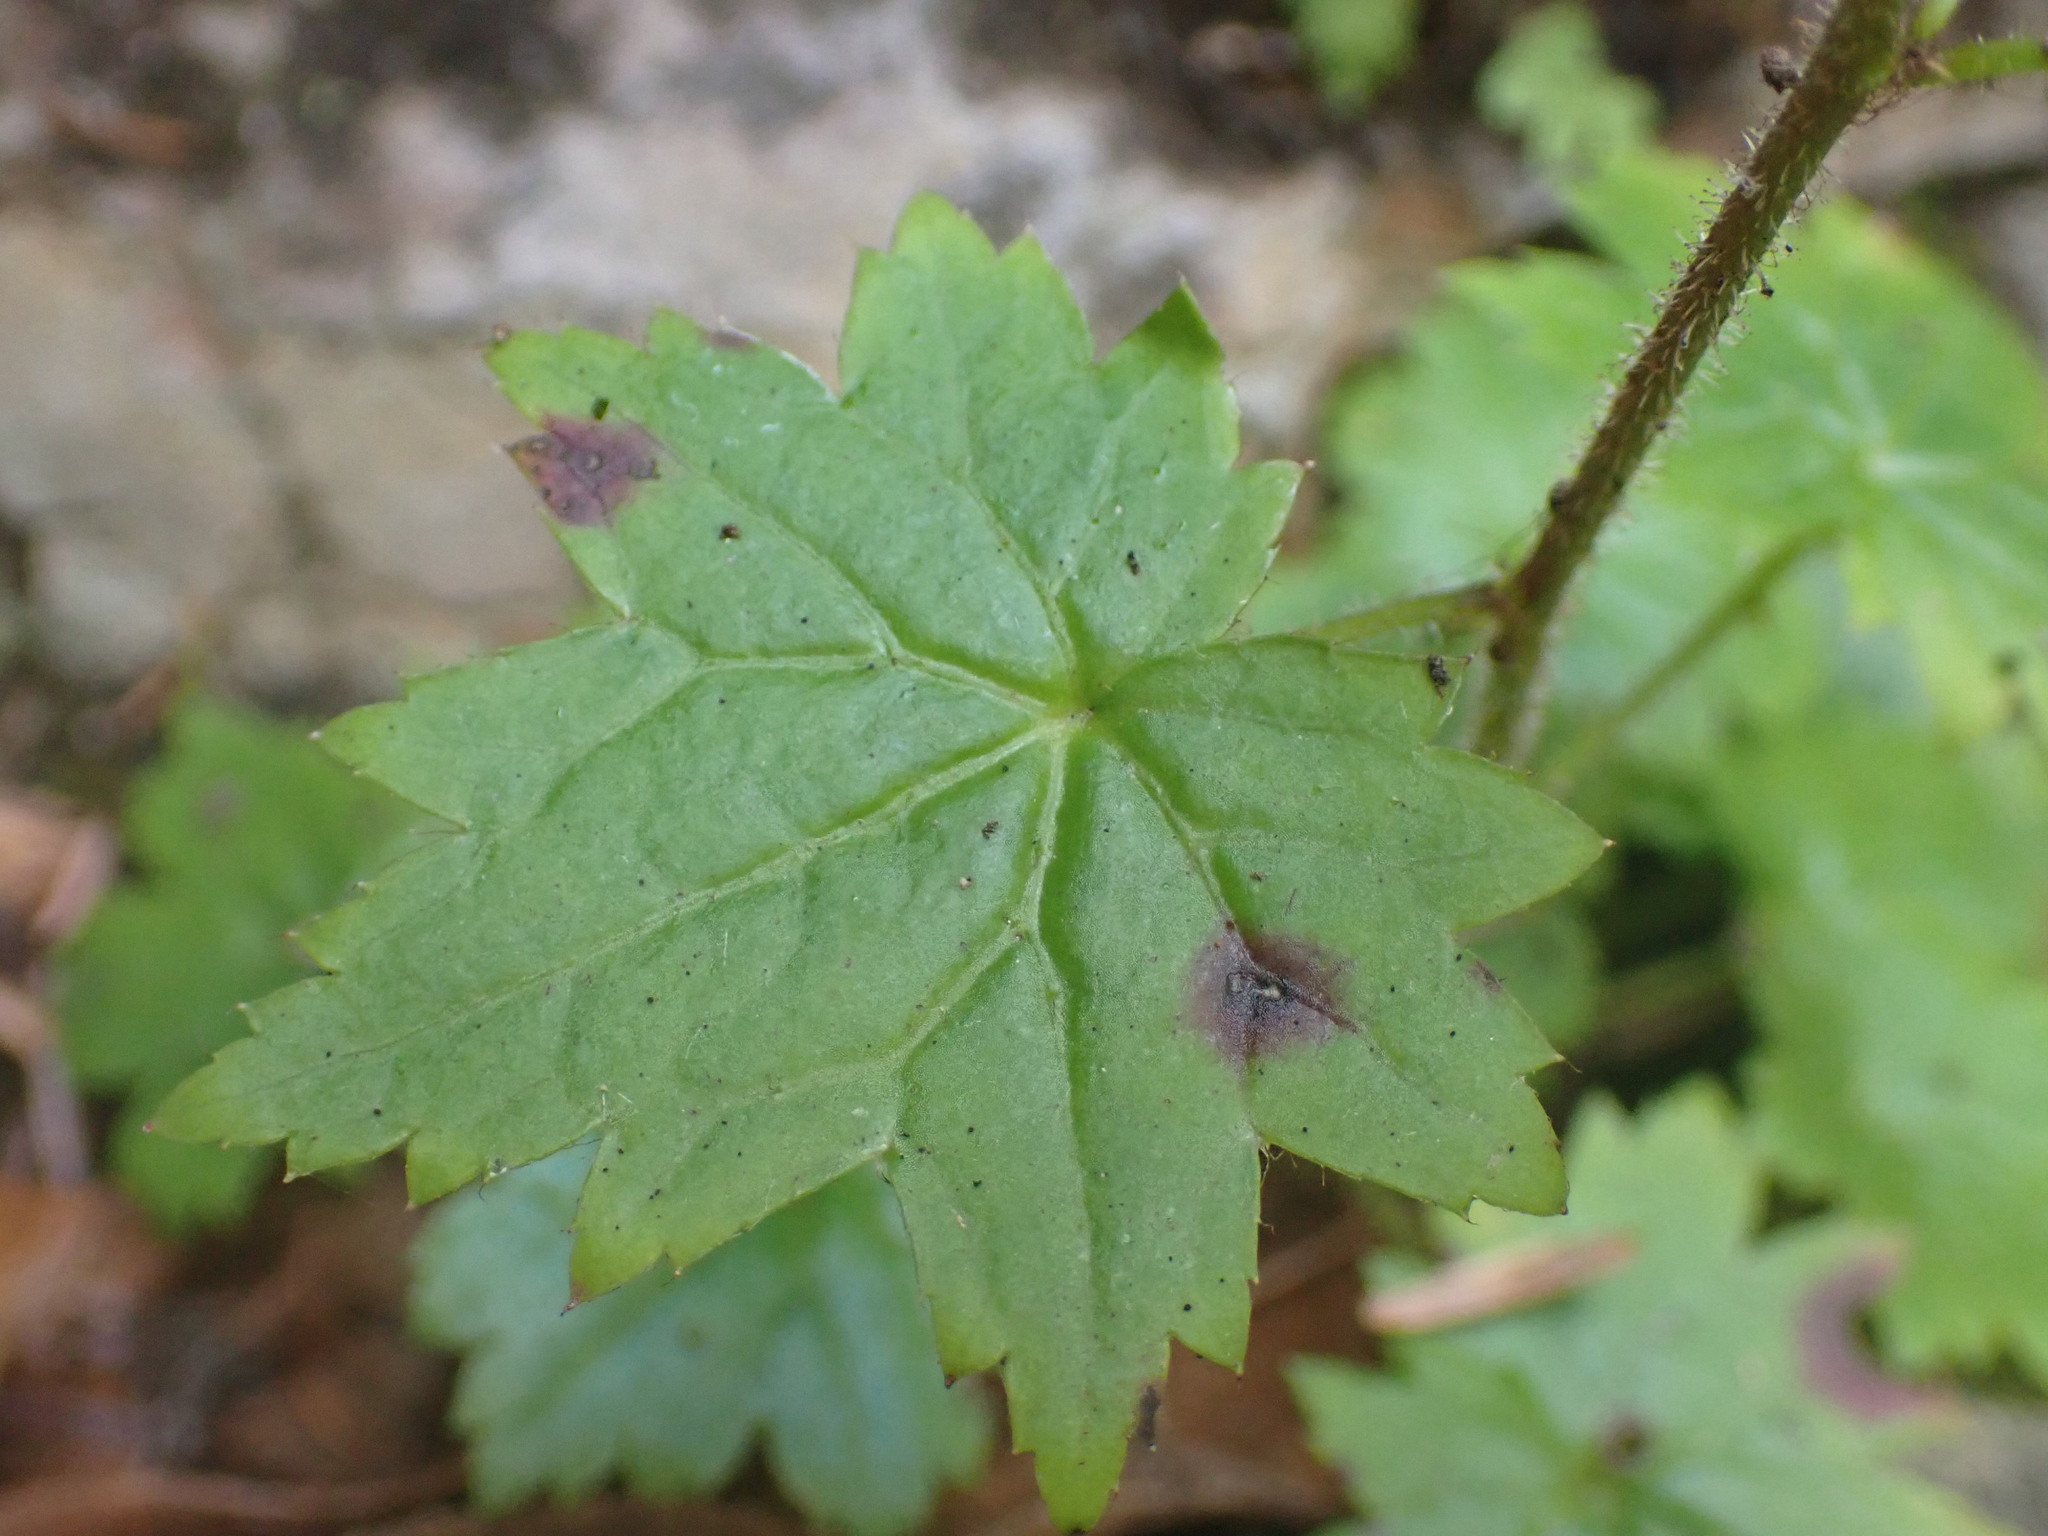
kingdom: Plantae
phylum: Tracheophyta
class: Magnoliopsida
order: Saxifragales
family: Saxifragaceae
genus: Boykinia
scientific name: Boykinia occidentalis
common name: Coast boykinia
